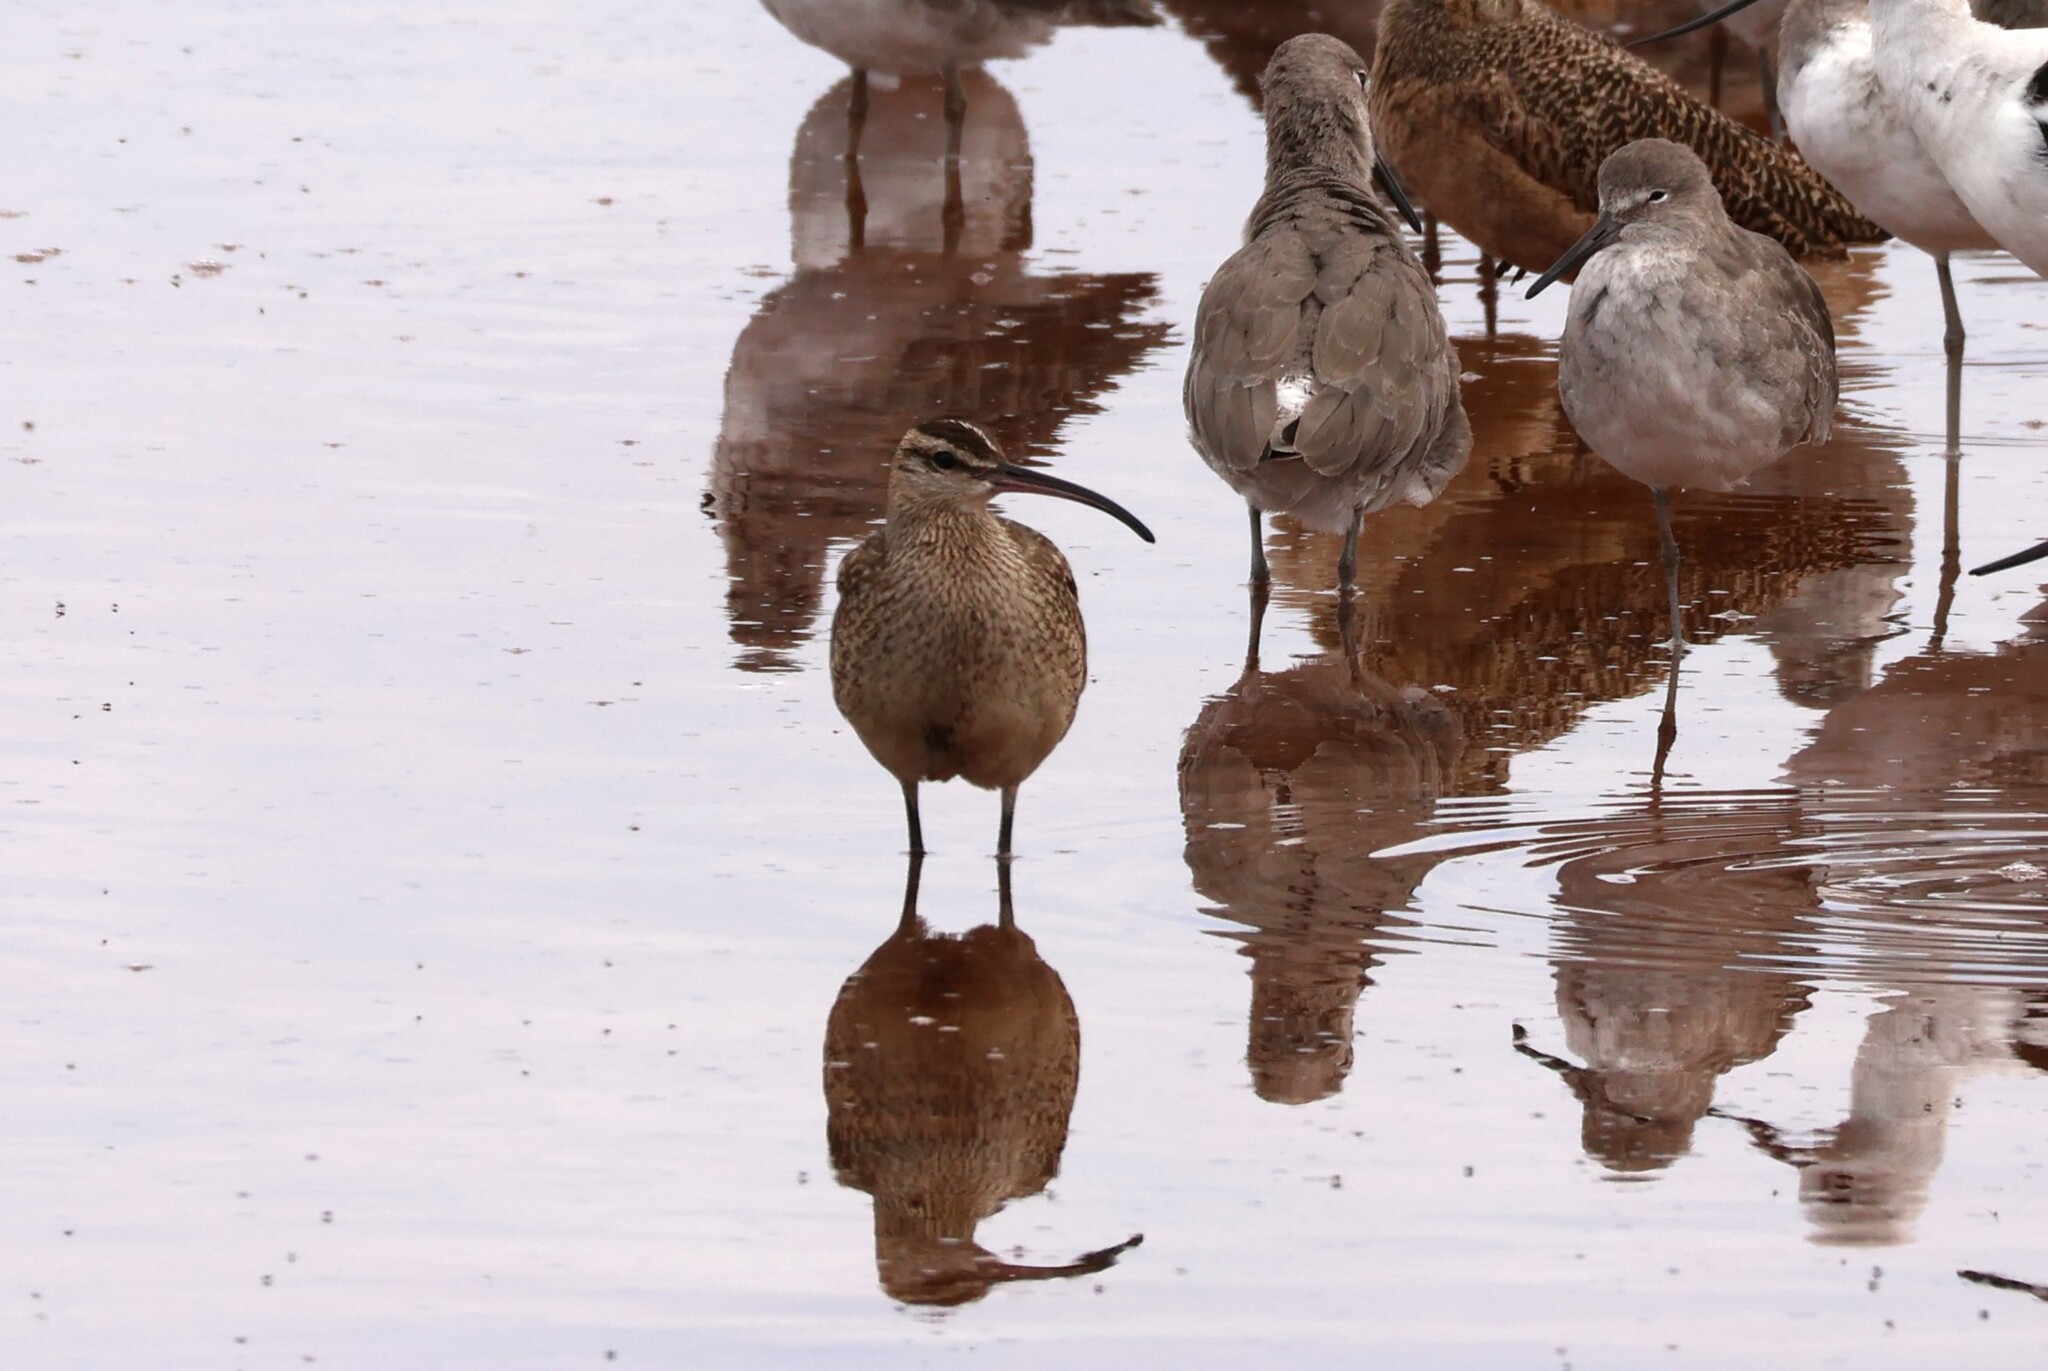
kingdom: Animalia
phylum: Chordata
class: Aves
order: Charadriiformes
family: Scolopacidae
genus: Numenius
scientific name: Numenius phaeopus
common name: Whimbrel
